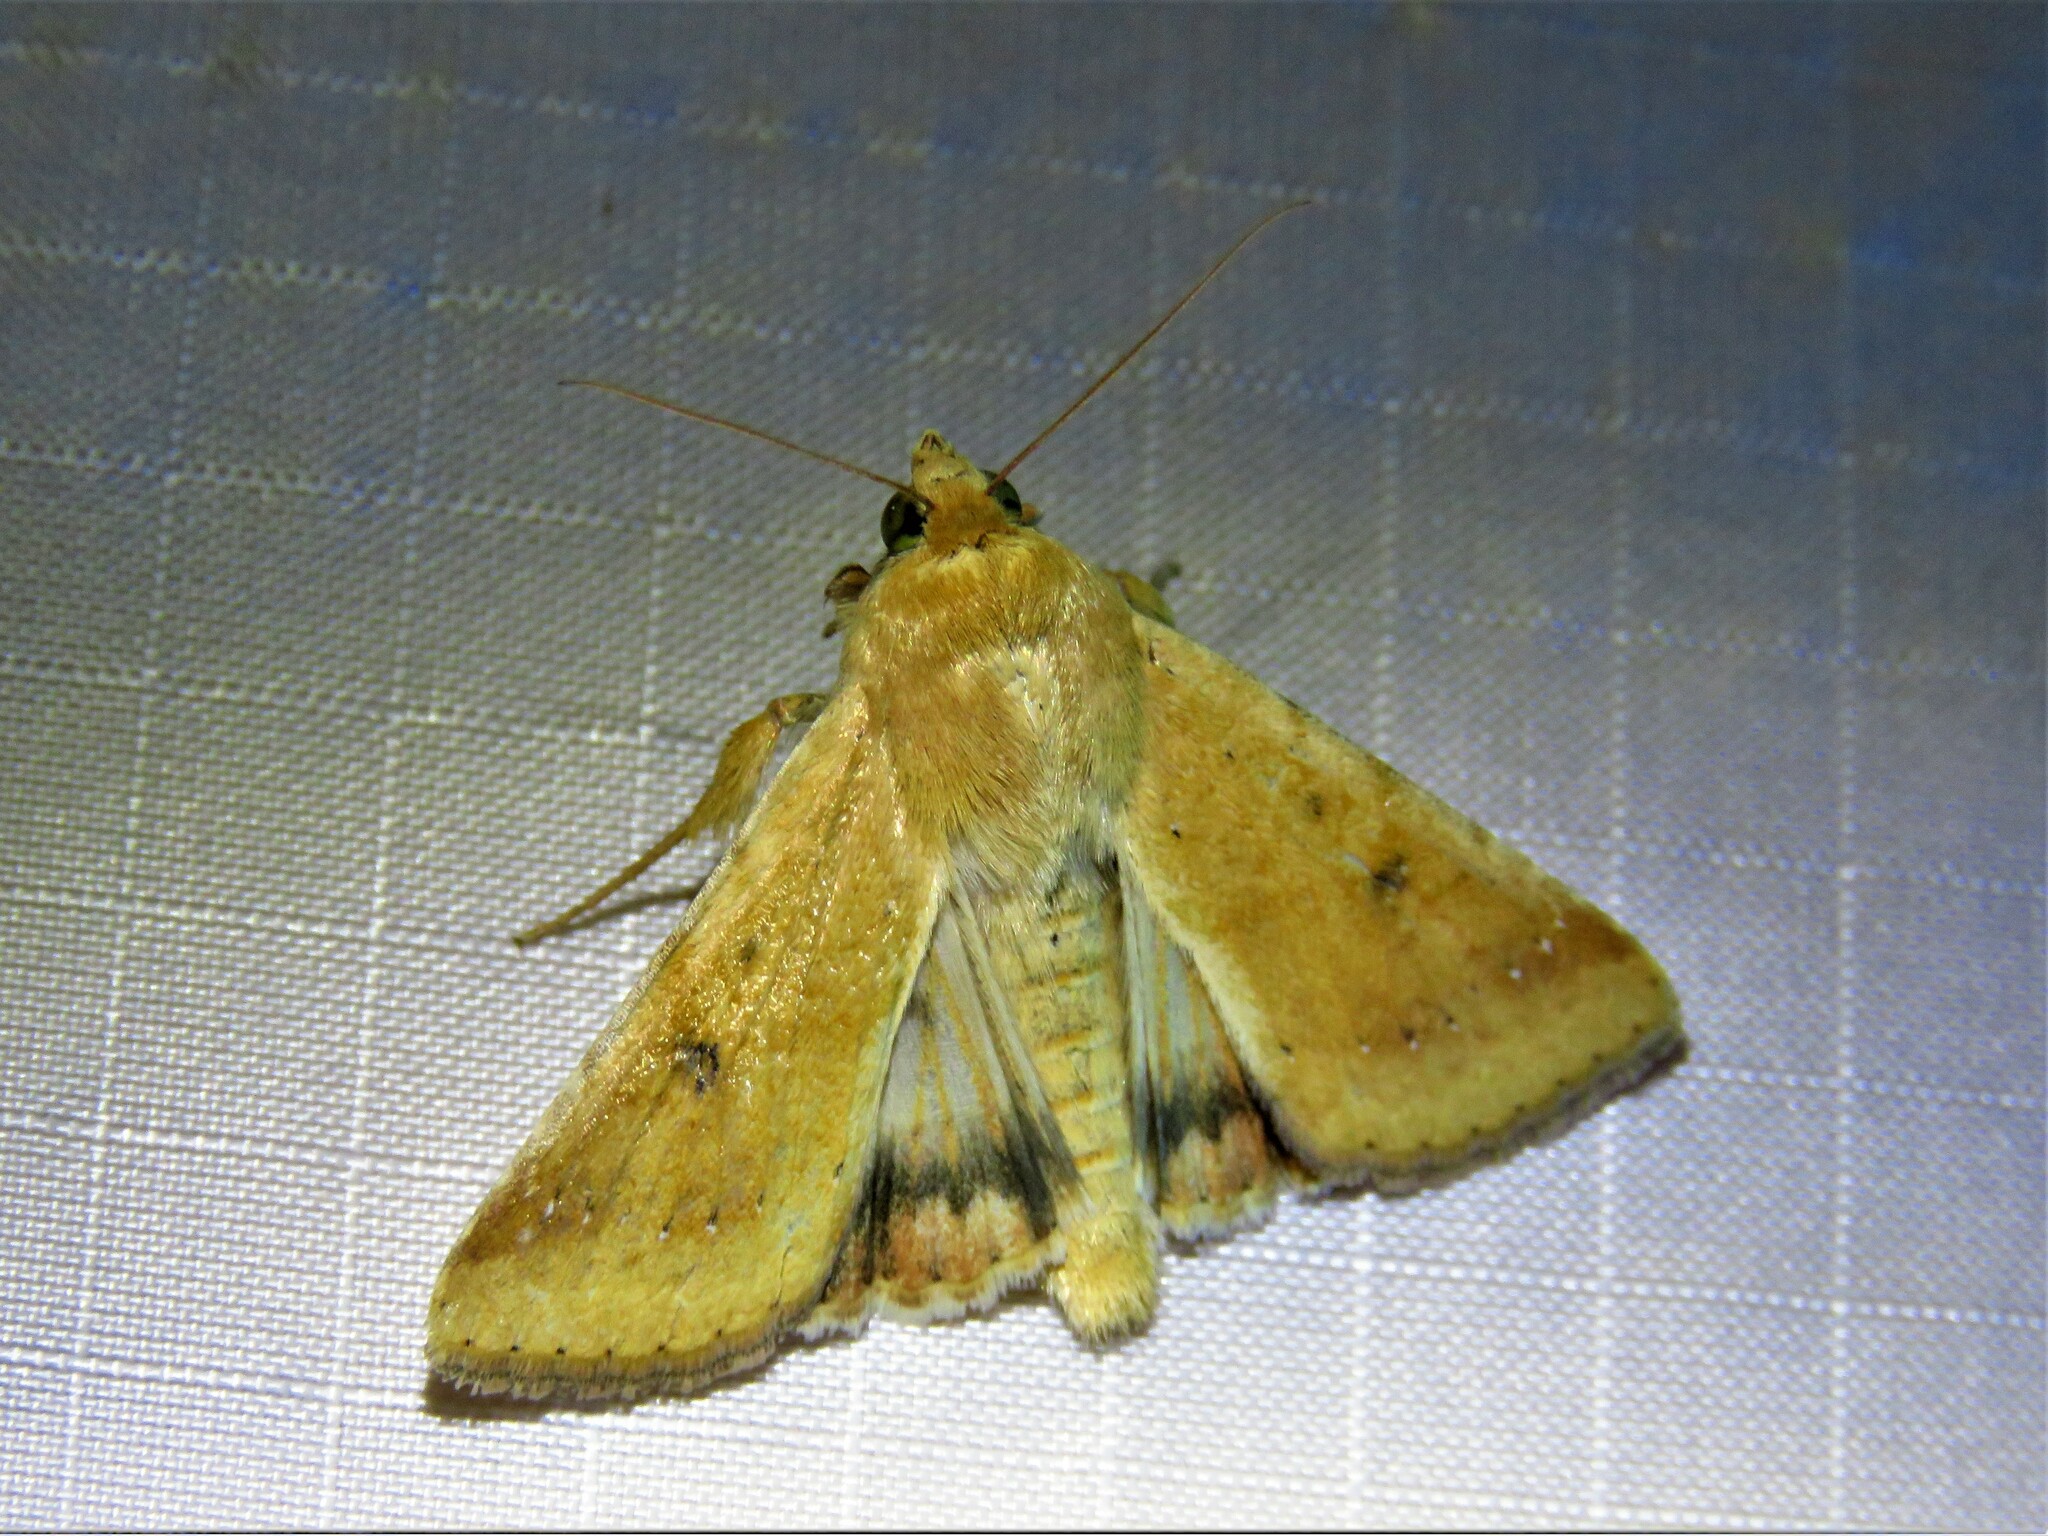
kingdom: Animalia
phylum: Arthropoda
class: Insecta
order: Lepidoptera
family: Noctuidae
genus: Helicoverpa
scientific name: Helicoverpa zea
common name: Bollworm
